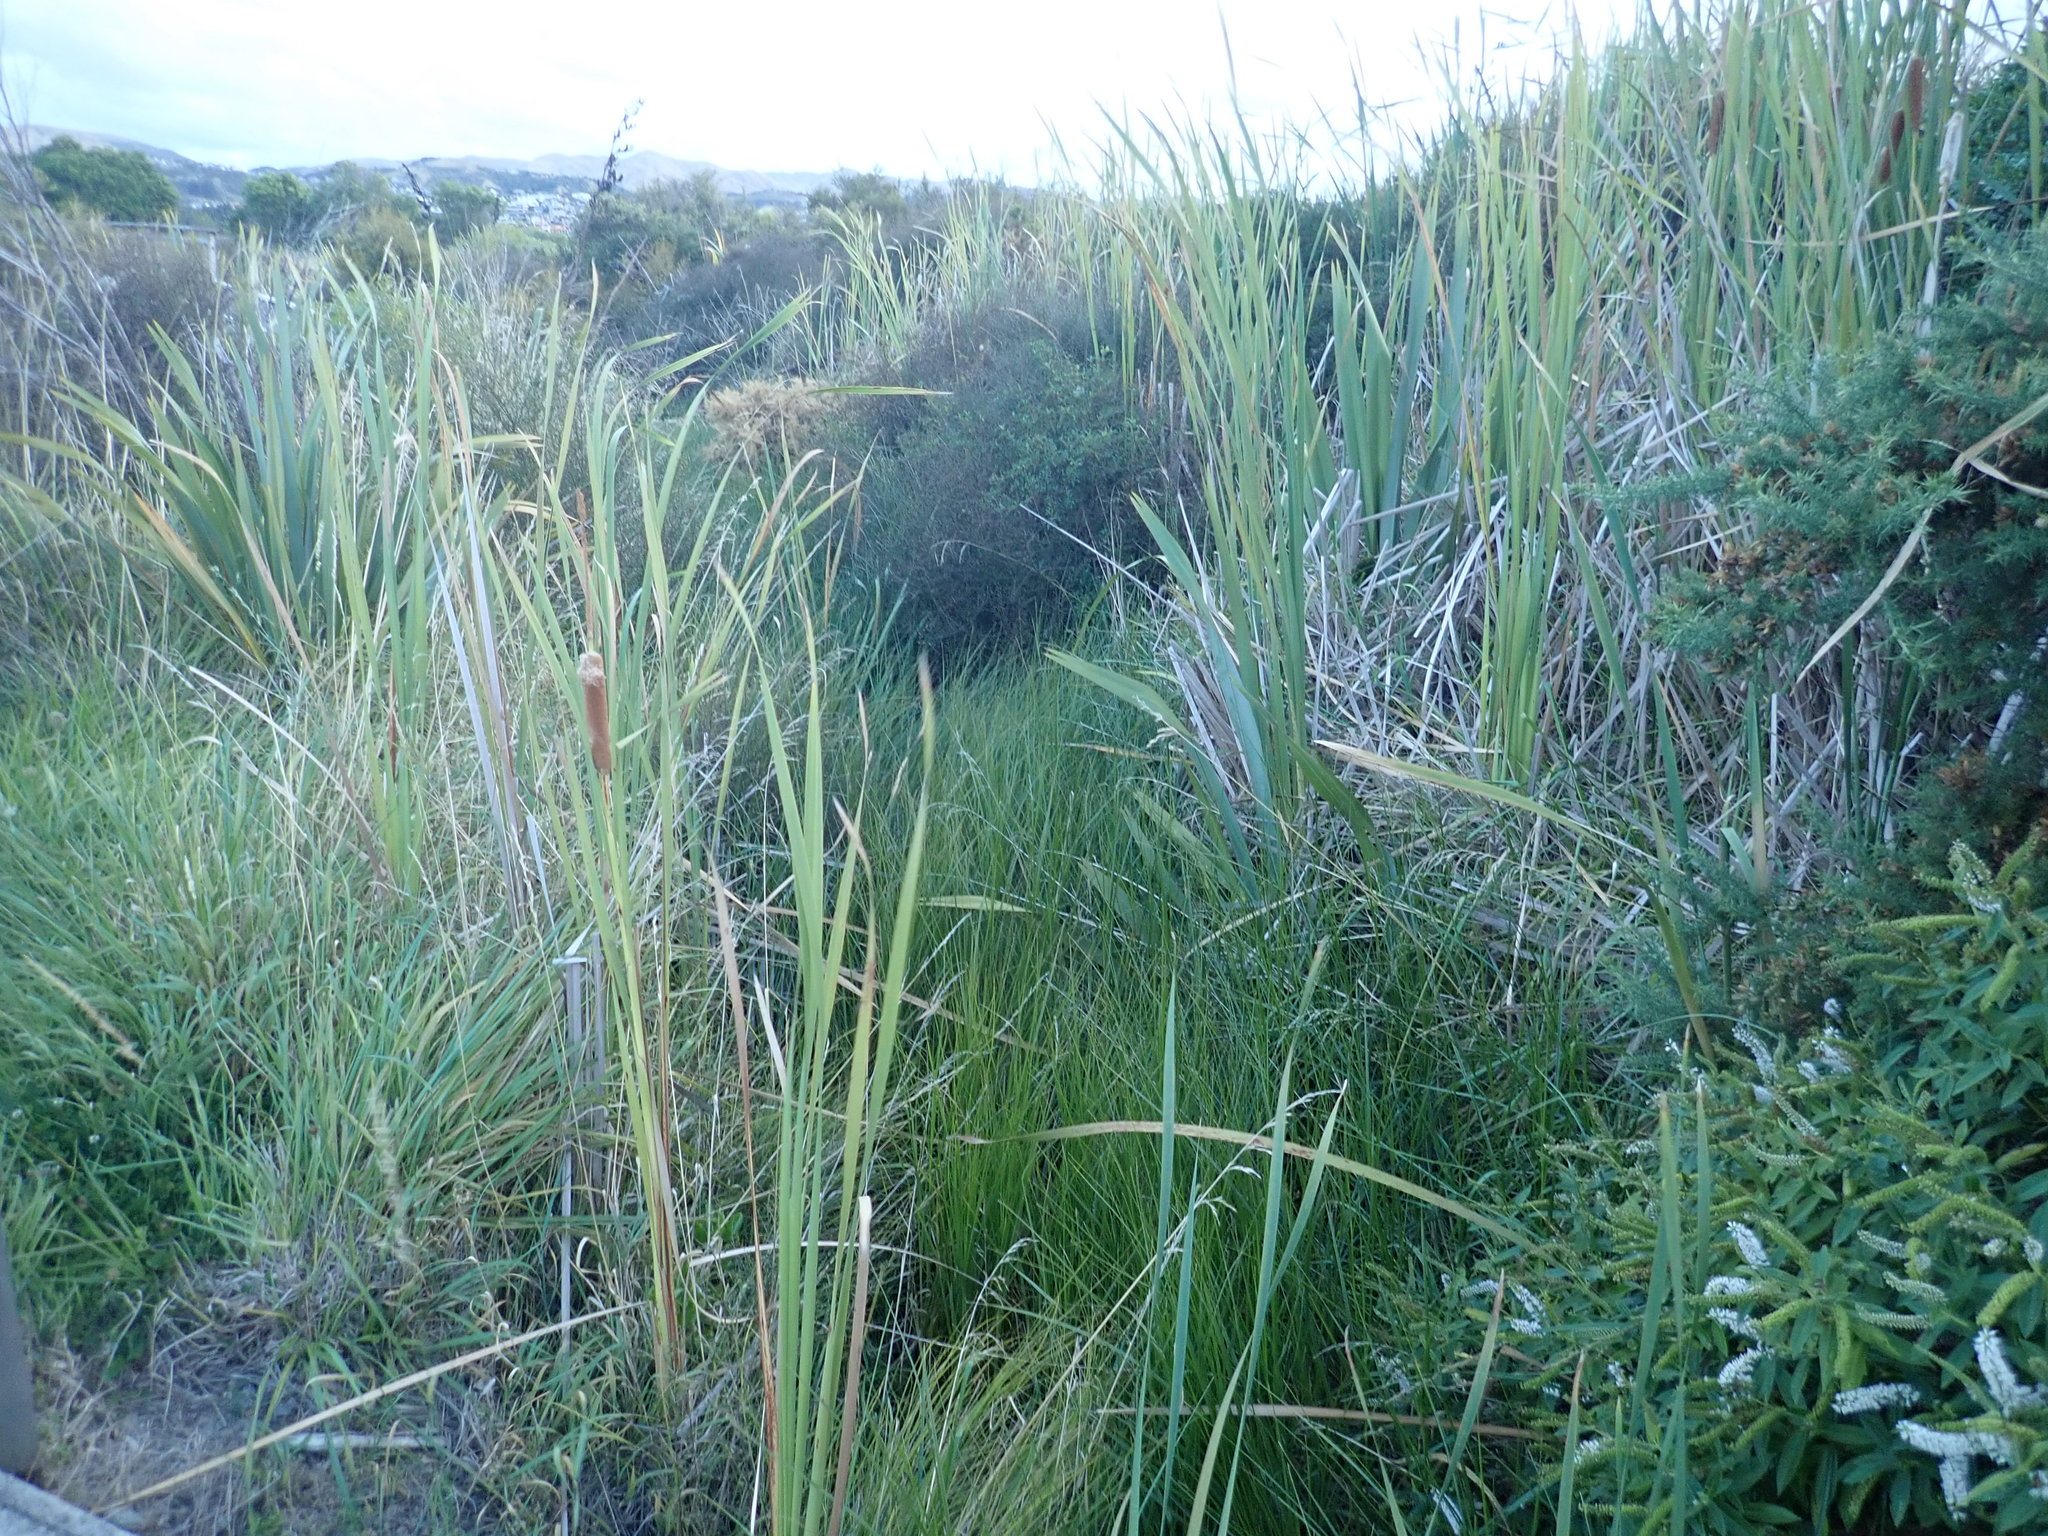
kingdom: Plantae
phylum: Tracheophyta
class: Liliopsida
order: Poales
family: Typhaceae
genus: Typha
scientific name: Typha orientalis
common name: Bullrush
